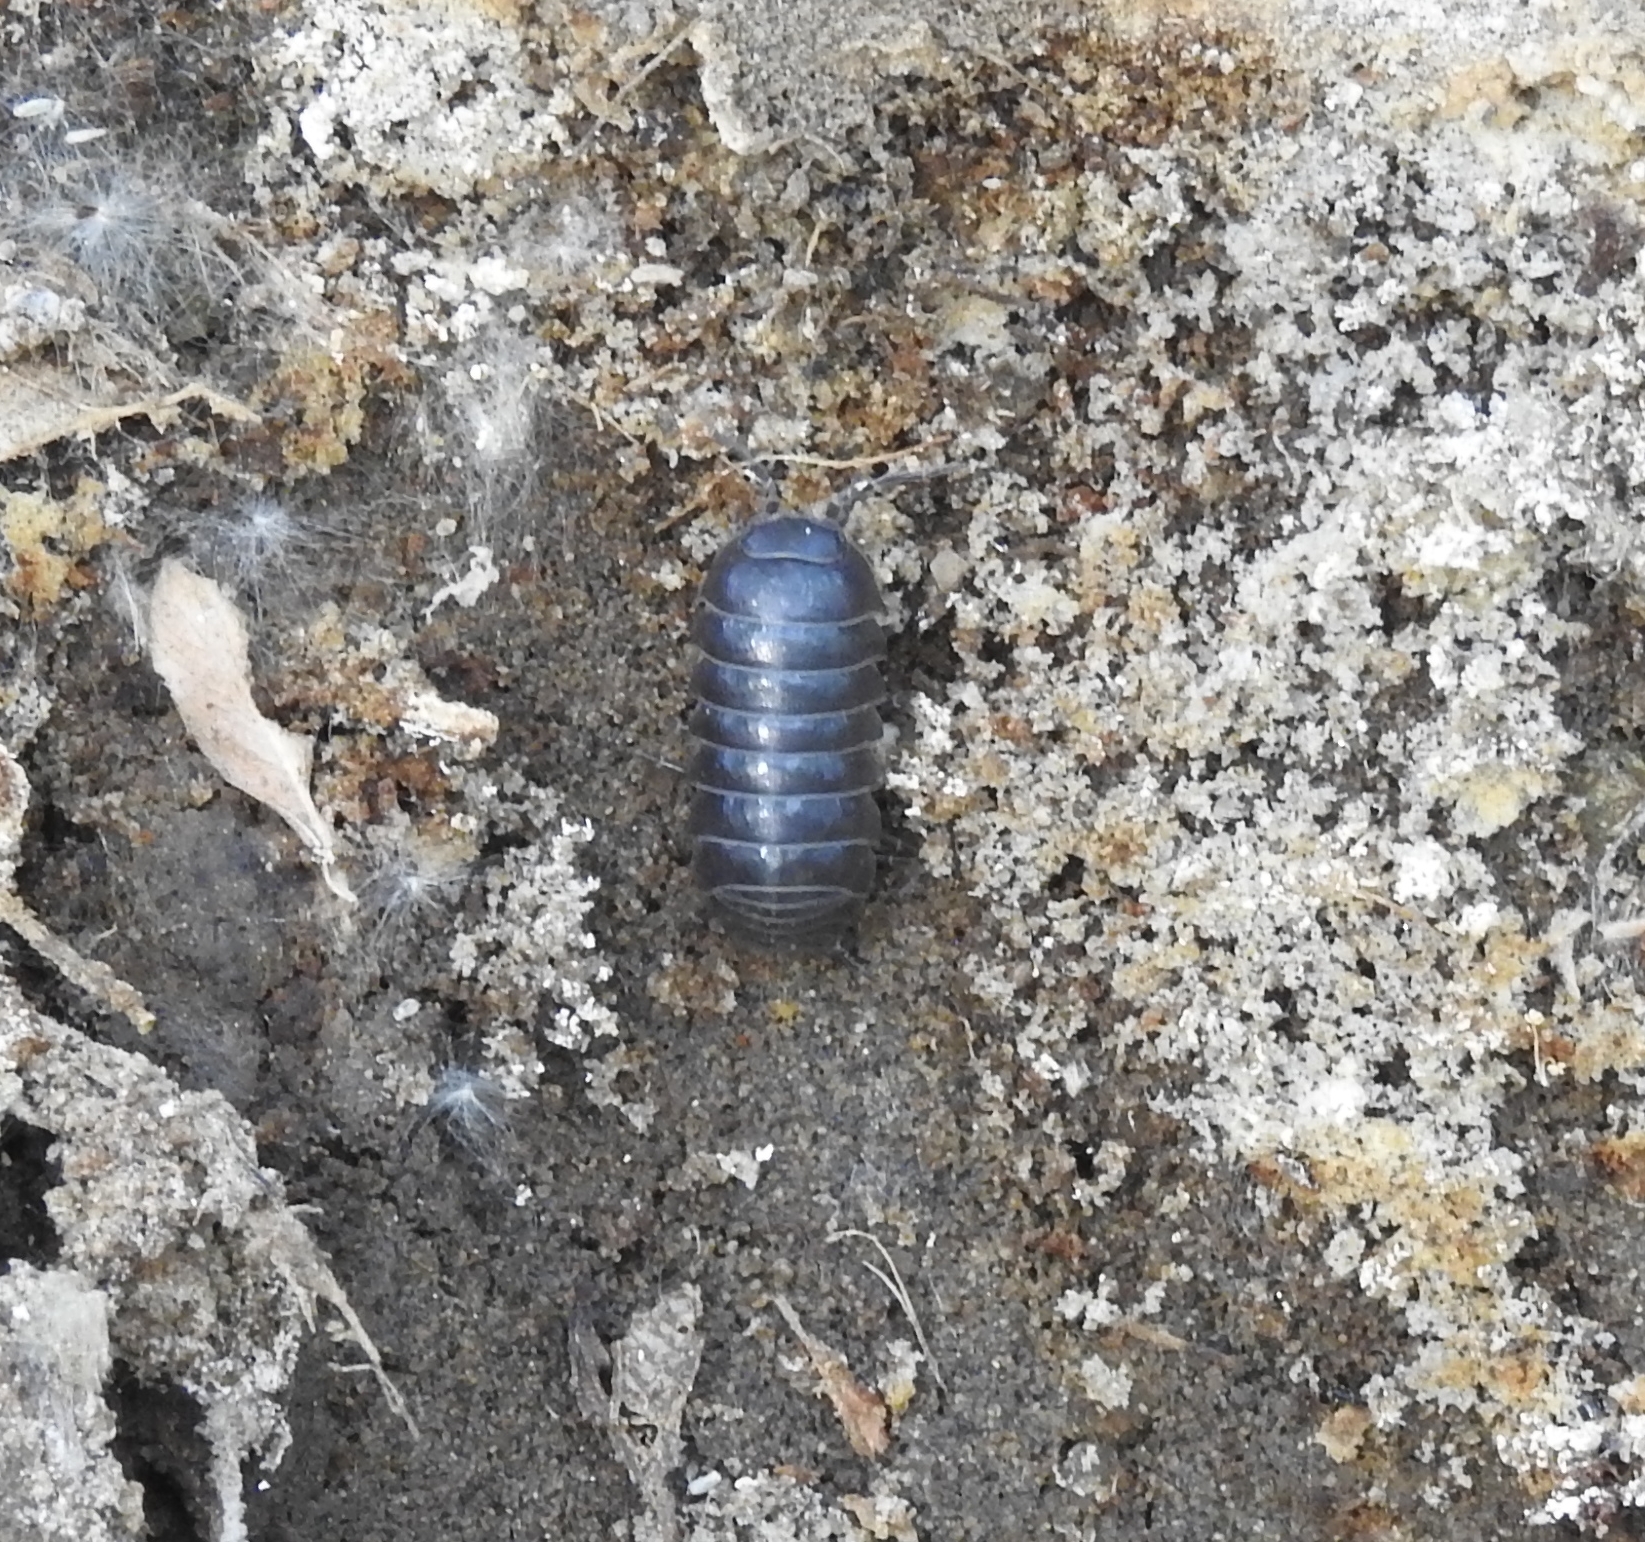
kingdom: Animalia
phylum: Arthropoda
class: Malacostraca
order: Isopoda
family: Armadillidiidae
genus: Armadillidium
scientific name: Armadillidium vulgare
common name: Common pill woodlouse
